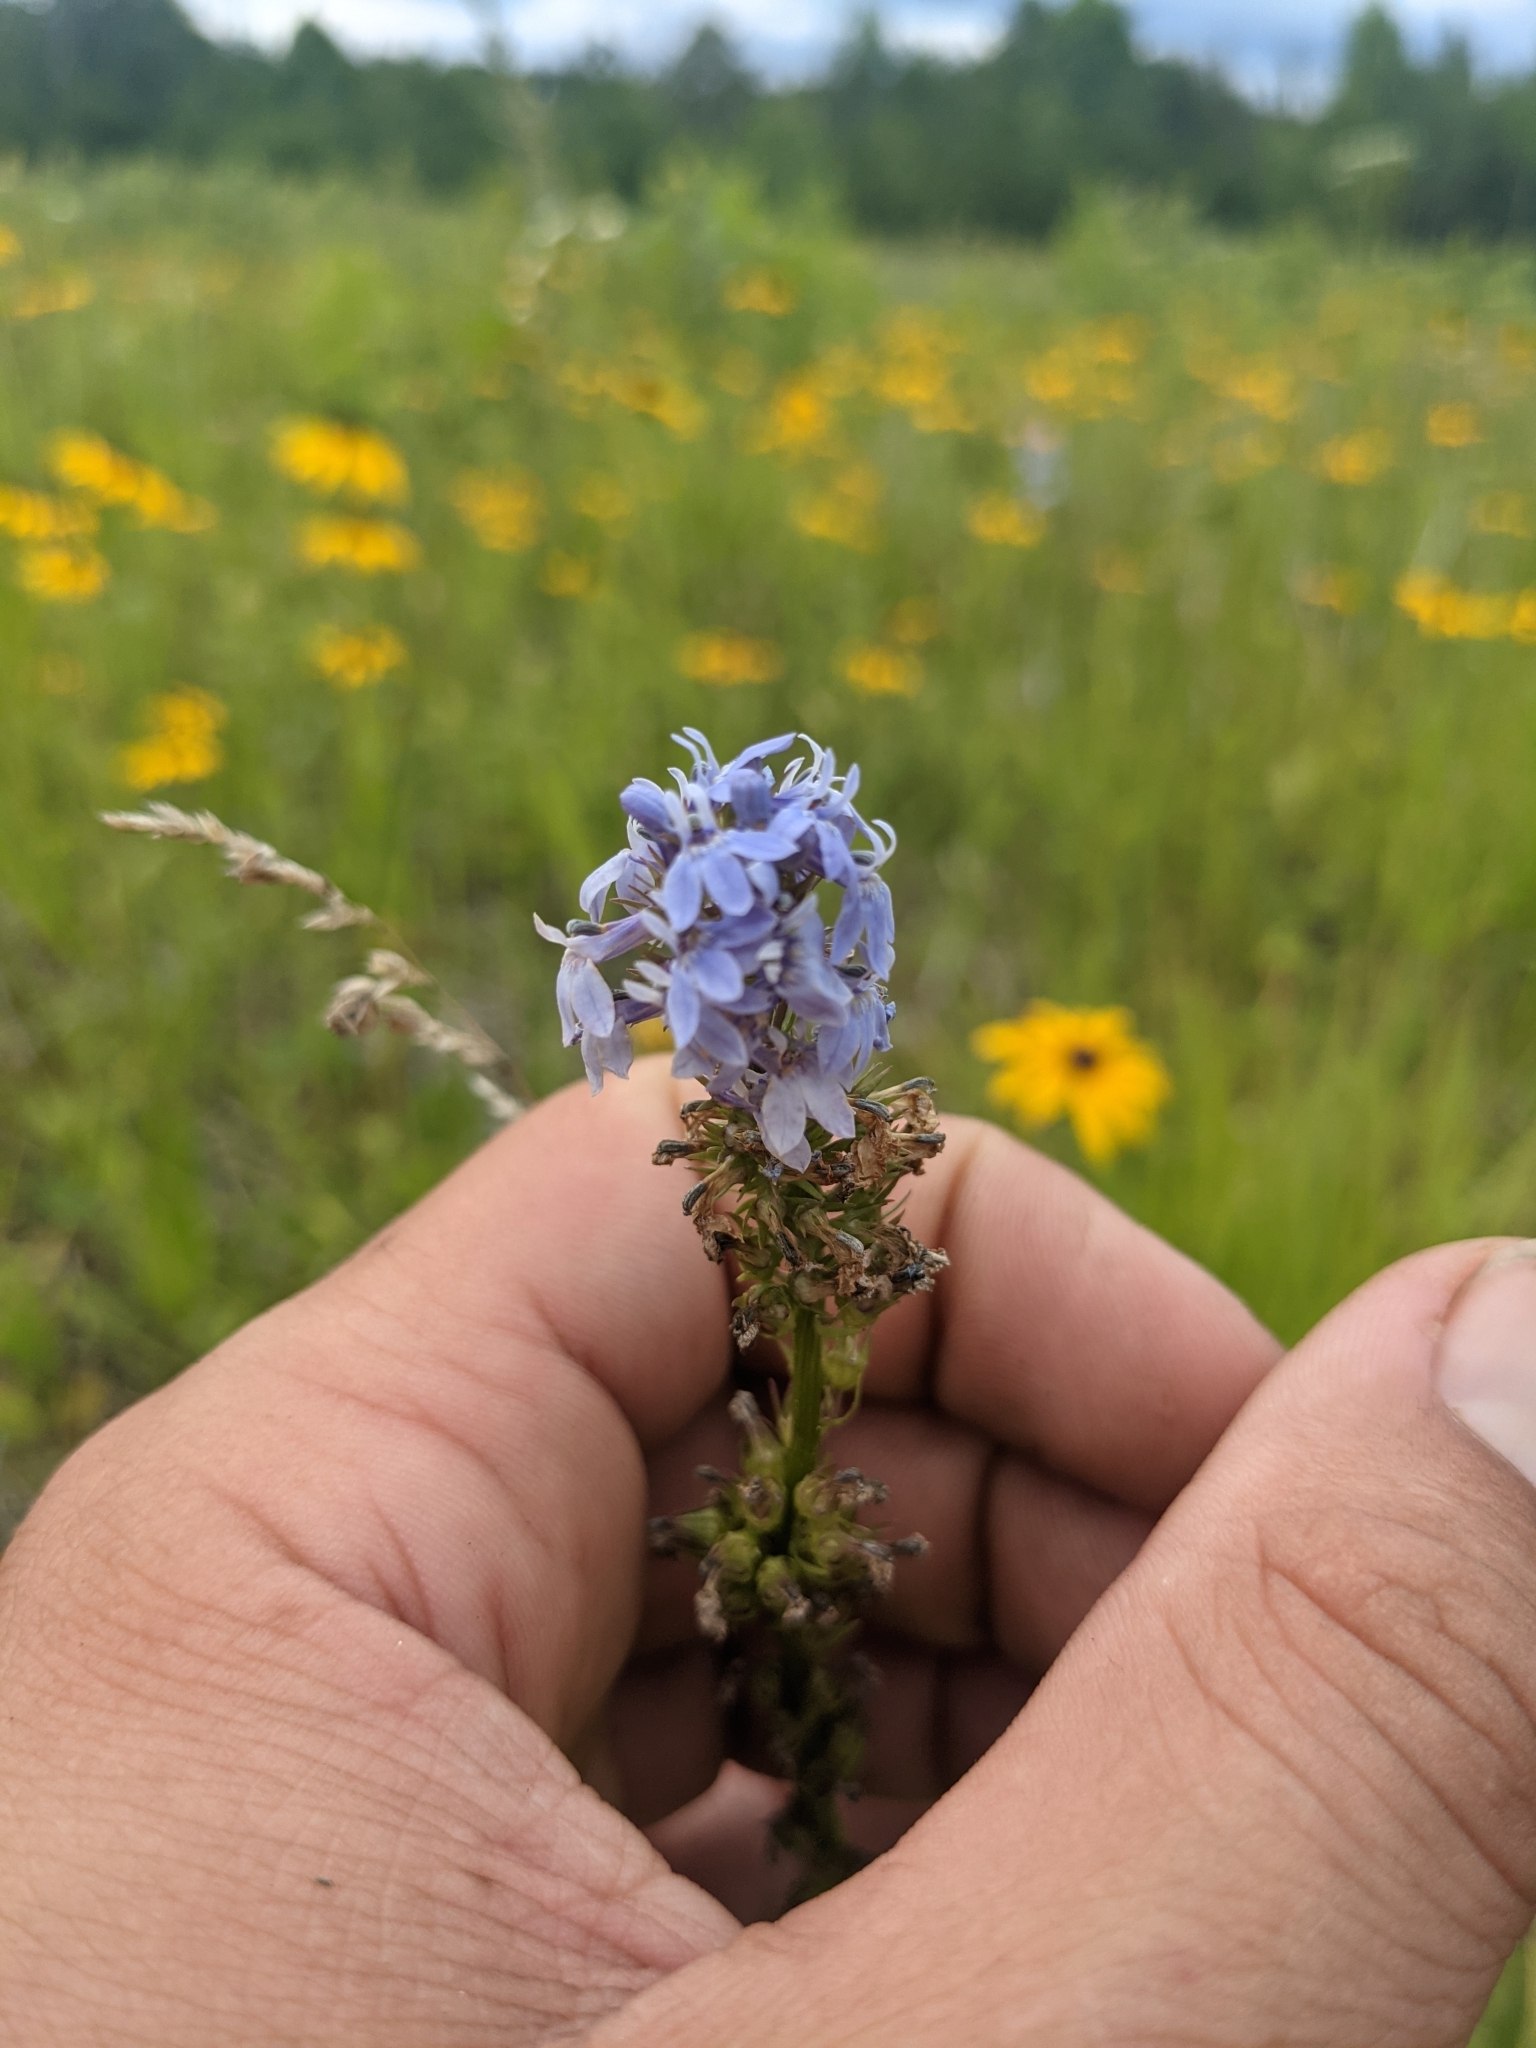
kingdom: Plantae
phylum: Tracheophyta
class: Magnoliopsida
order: Asterales
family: Campanulaceae
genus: Lobelia
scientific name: Lobelia spicata
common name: Pale-spike lobelia
